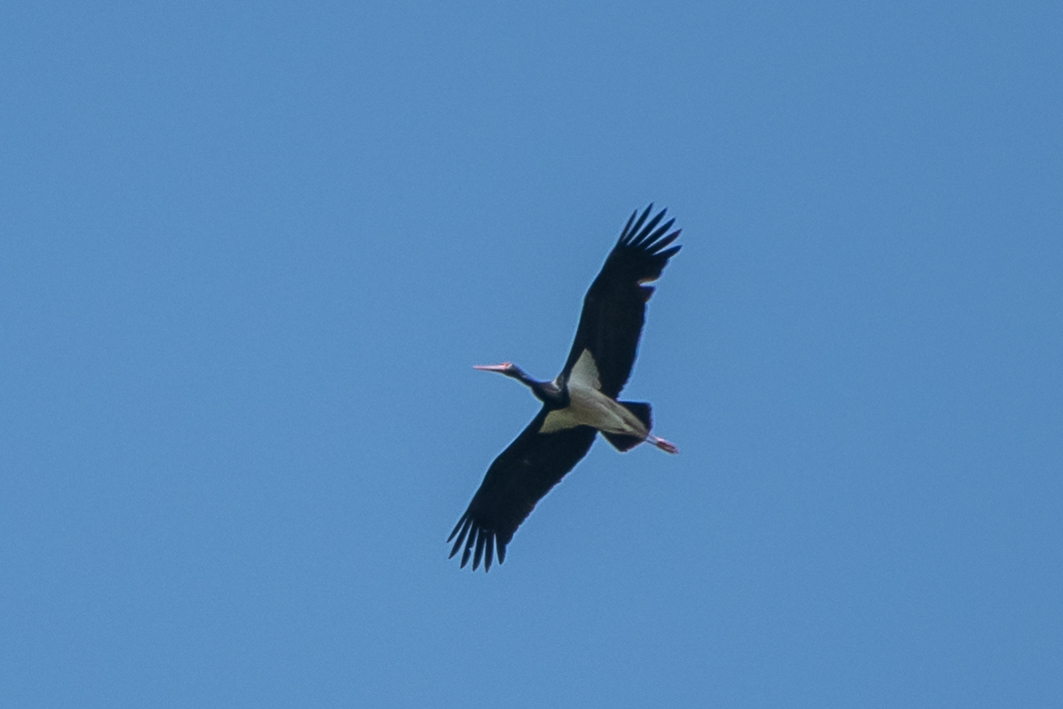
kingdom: Animalia
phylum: Chordata
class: Aves
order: Ciconiiformes
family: Ciconiidae
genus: Ciconia
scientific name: Ciconia nigra
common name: Black stork
